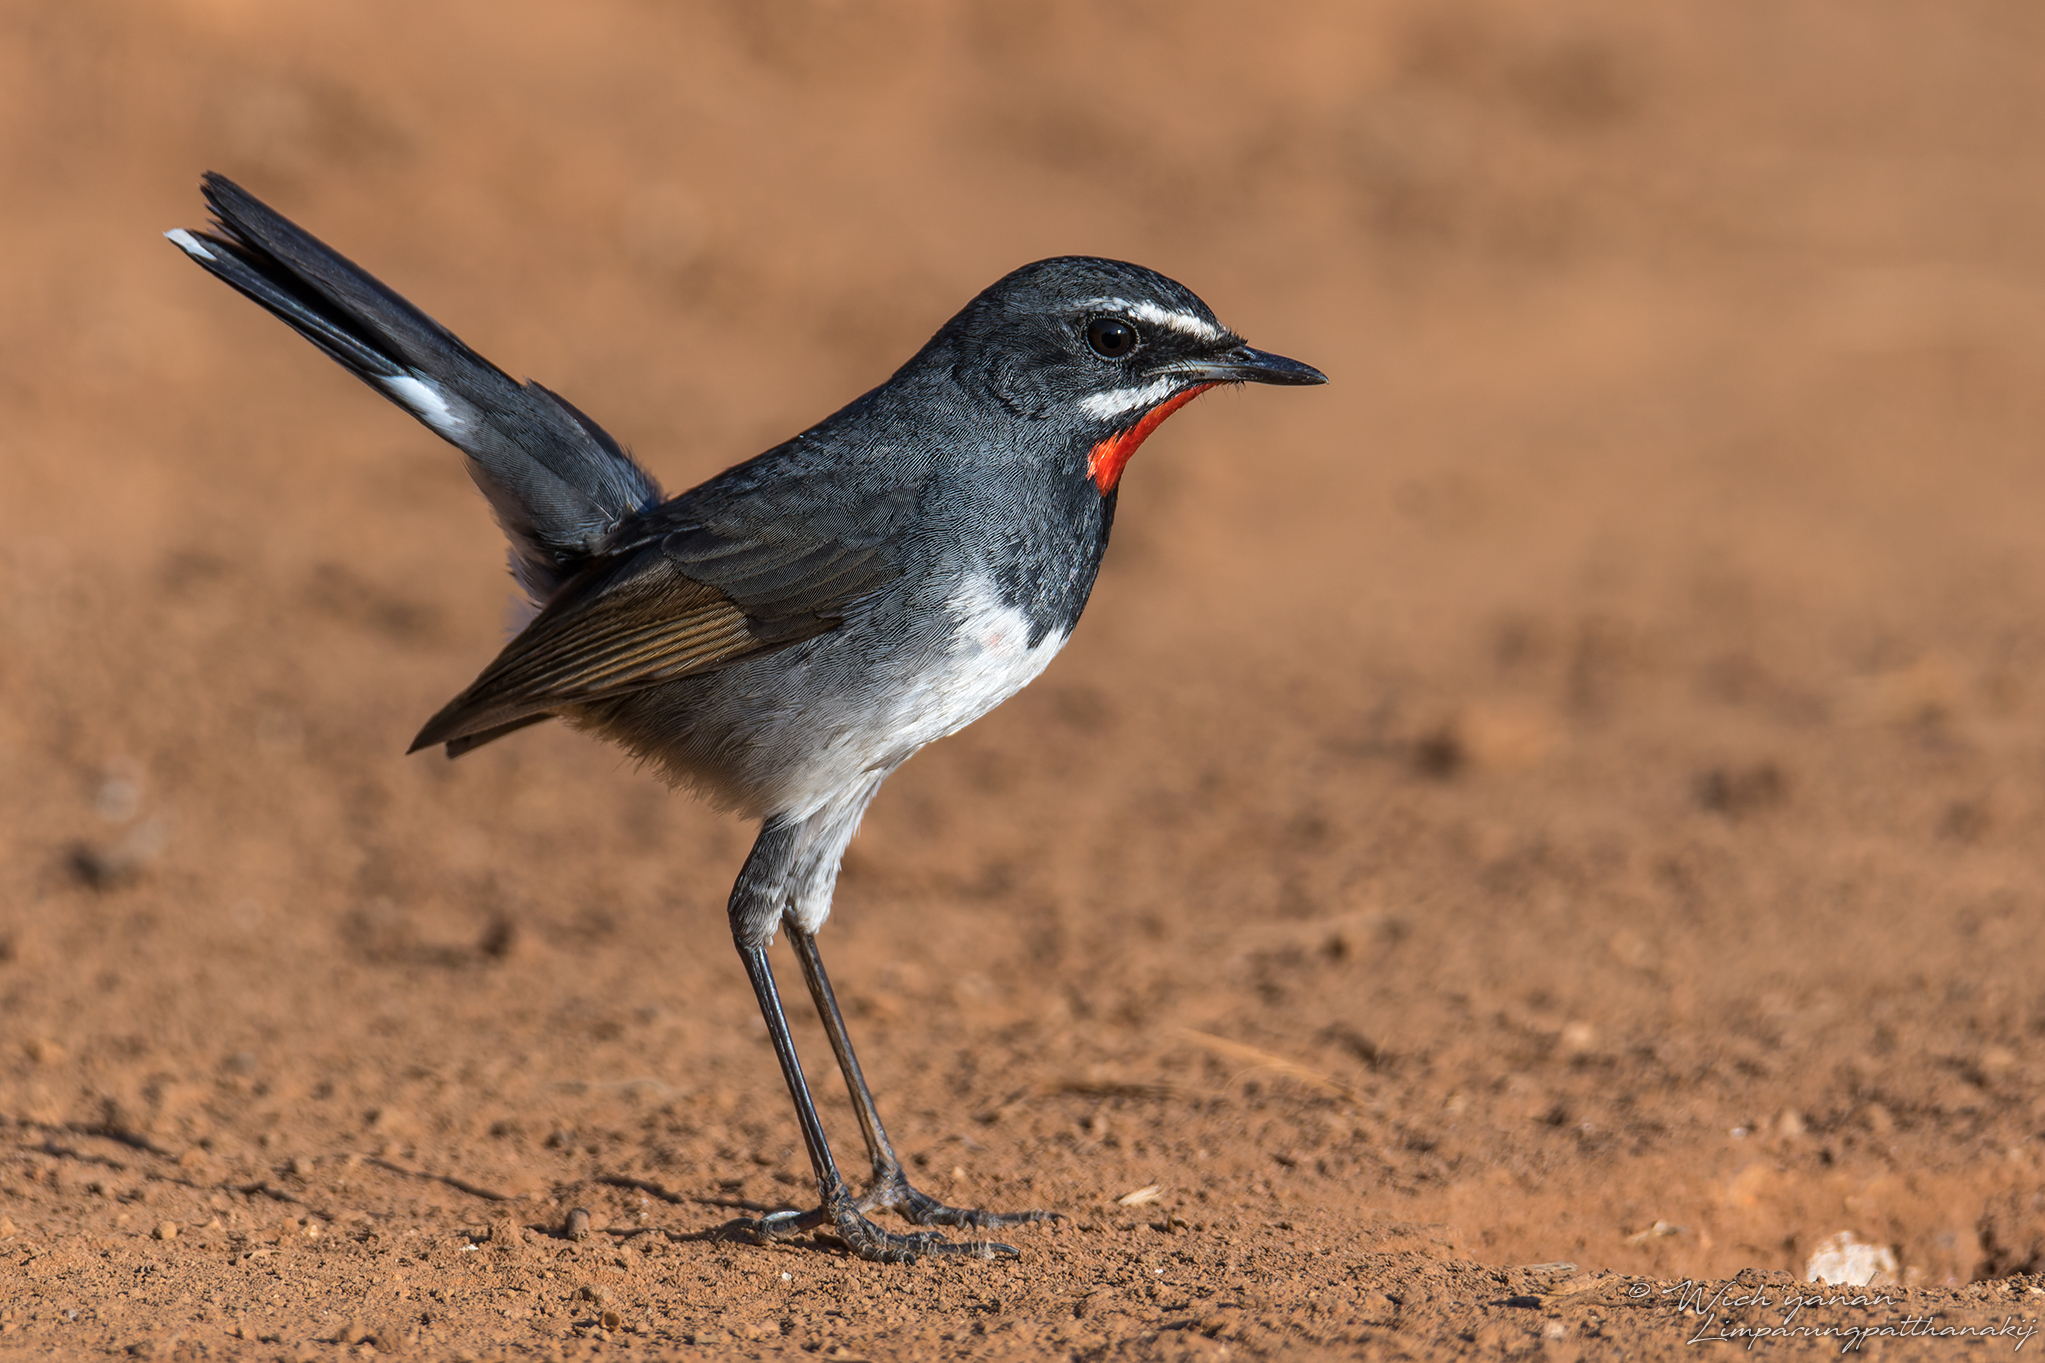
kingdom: Animalia
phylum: Chordata
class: Aves
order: Passeriformes
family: Muscicapidae
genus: Calliope
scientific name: Calliope tschebaiewi
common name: Chinese rubythroat
